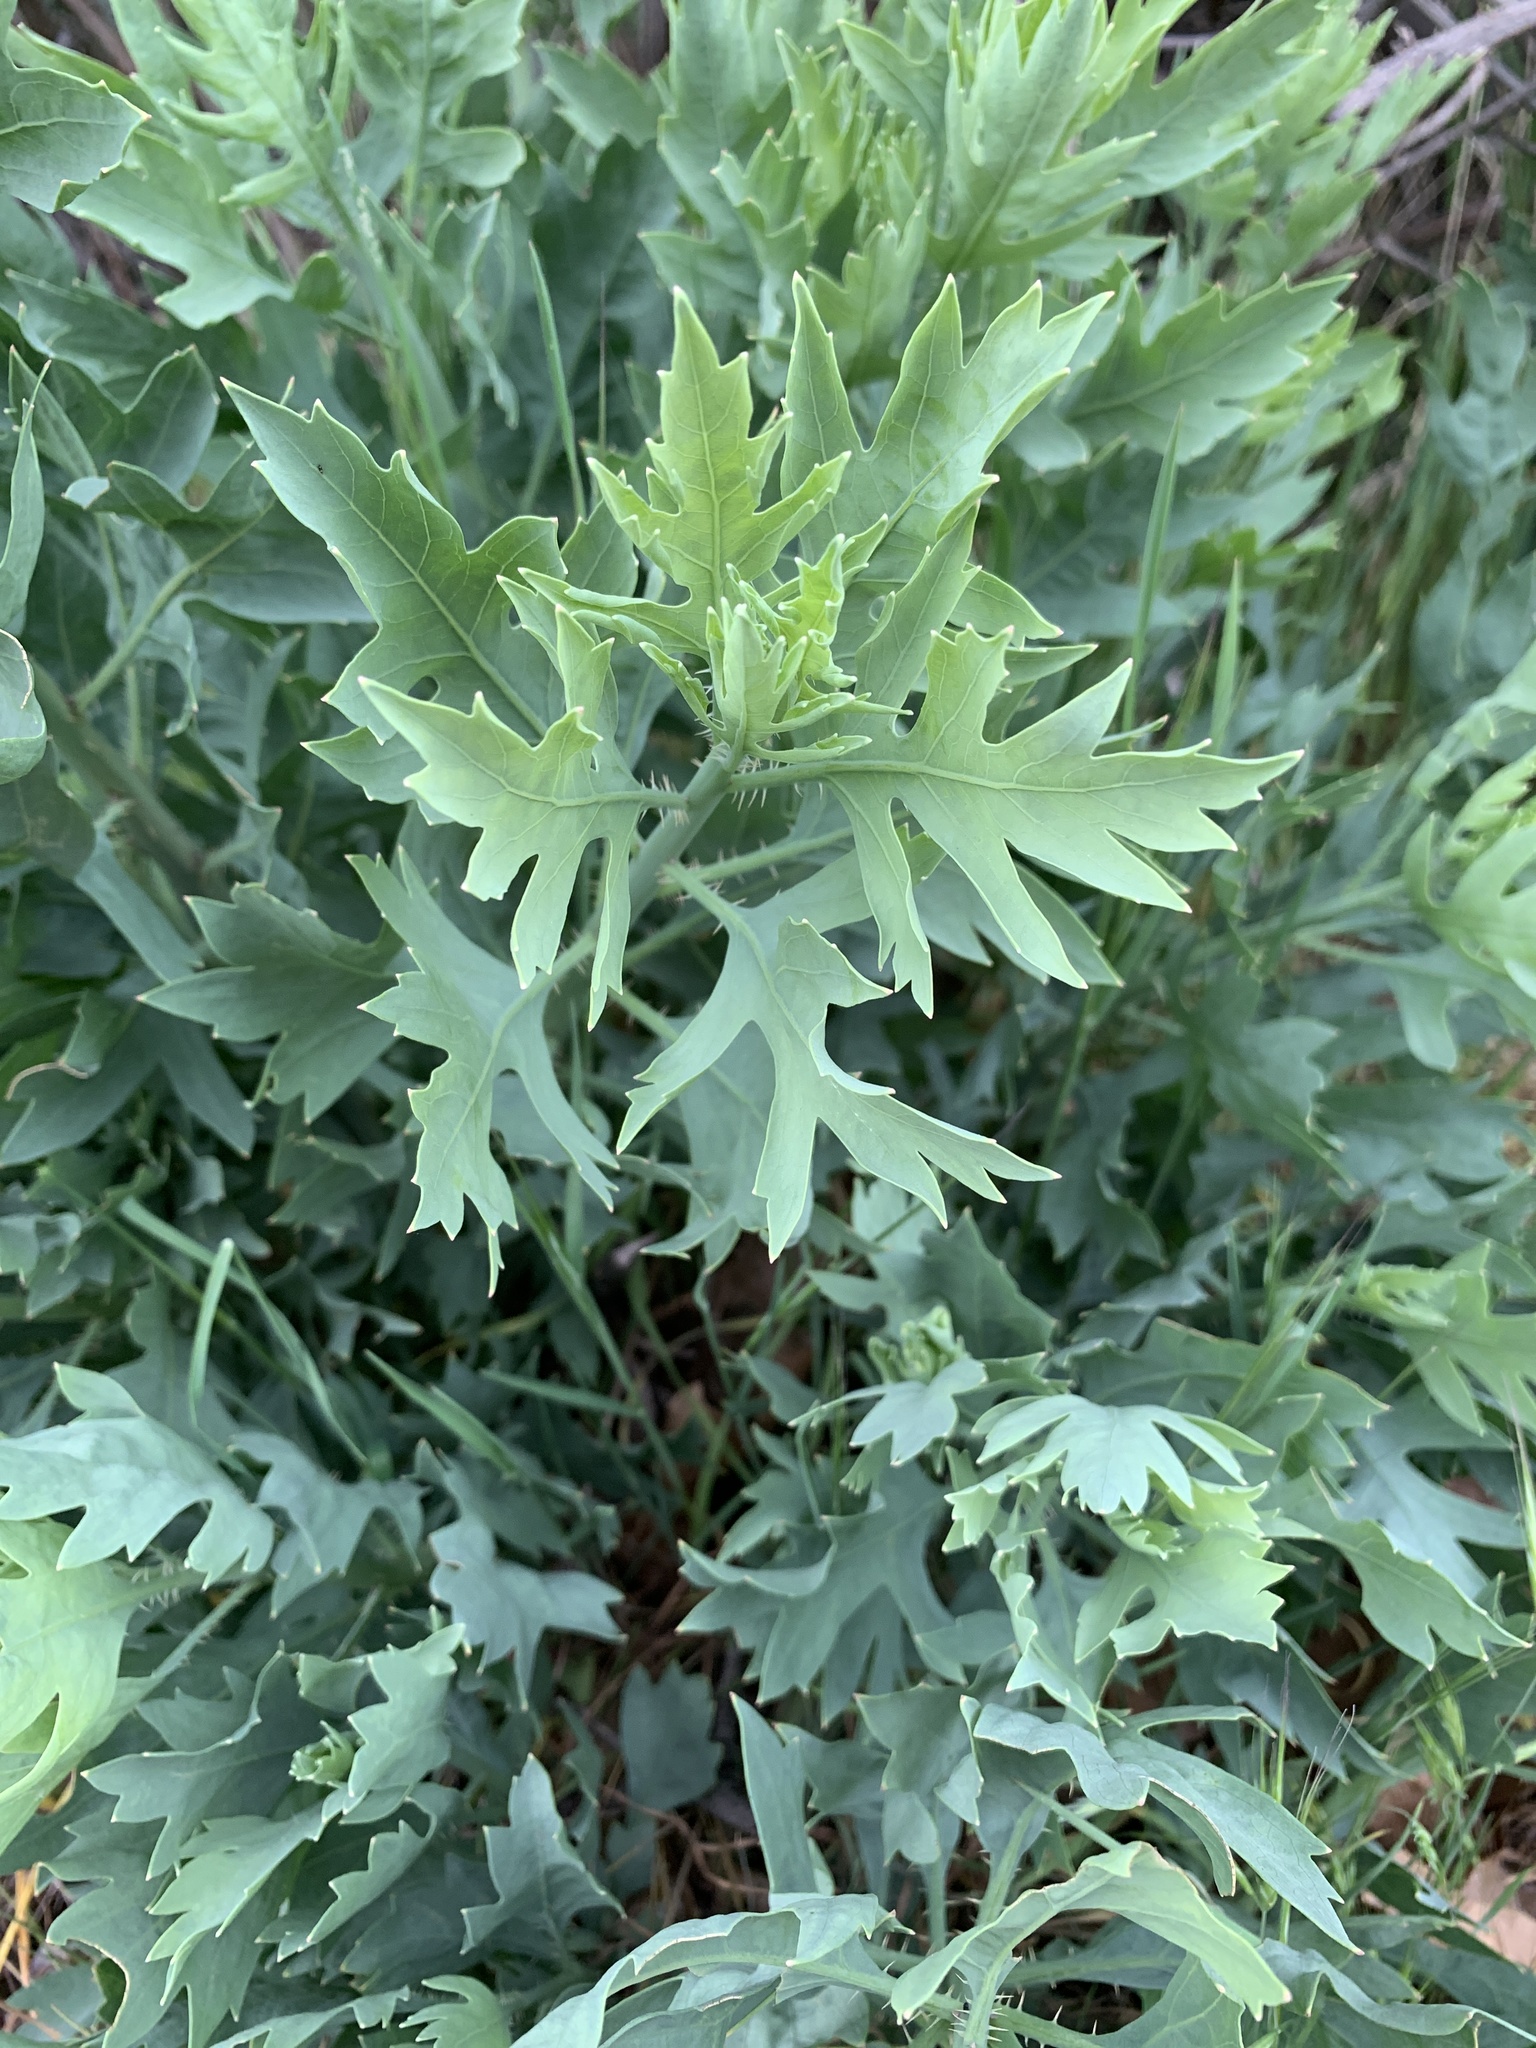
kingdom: Plantae
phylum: Tracheophyta
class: Magnoliopsida
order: Ranunculales
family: Papaveraceae
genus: Romneya
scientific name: Romneya coulteri
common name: California tree-poppy
